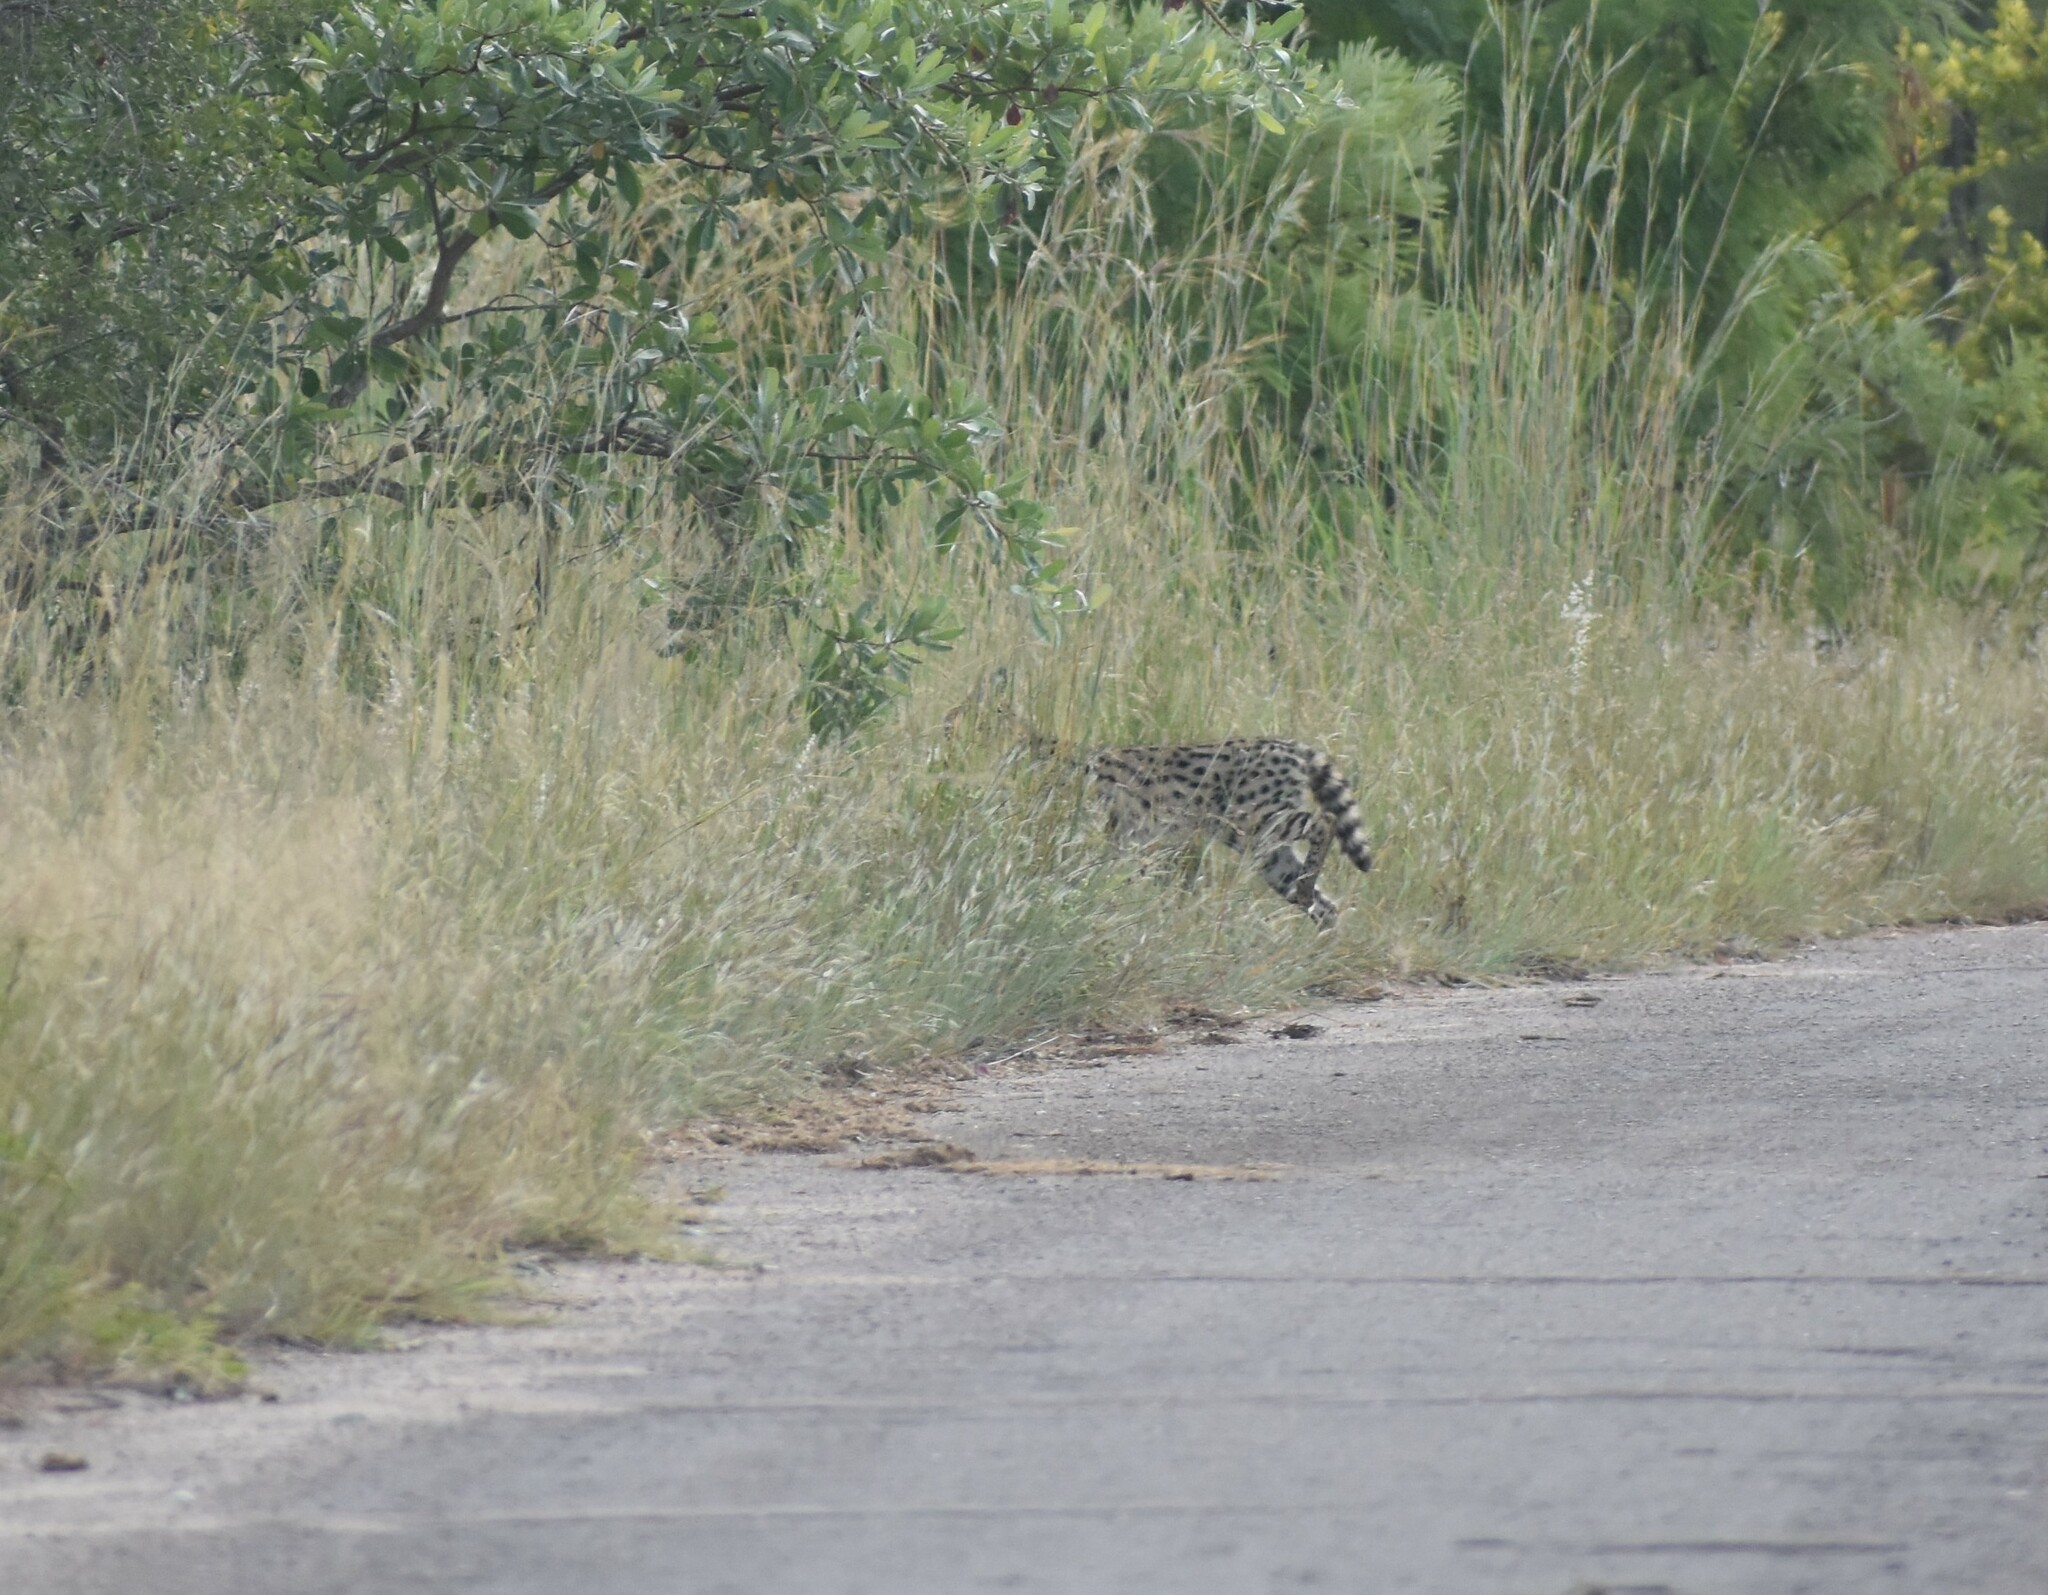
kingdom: Animalia
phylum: Chordata
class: Mammalia
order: Carnivora
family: Felidae
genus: Leptailurus
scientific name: Leptailurus serval
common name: Serval
